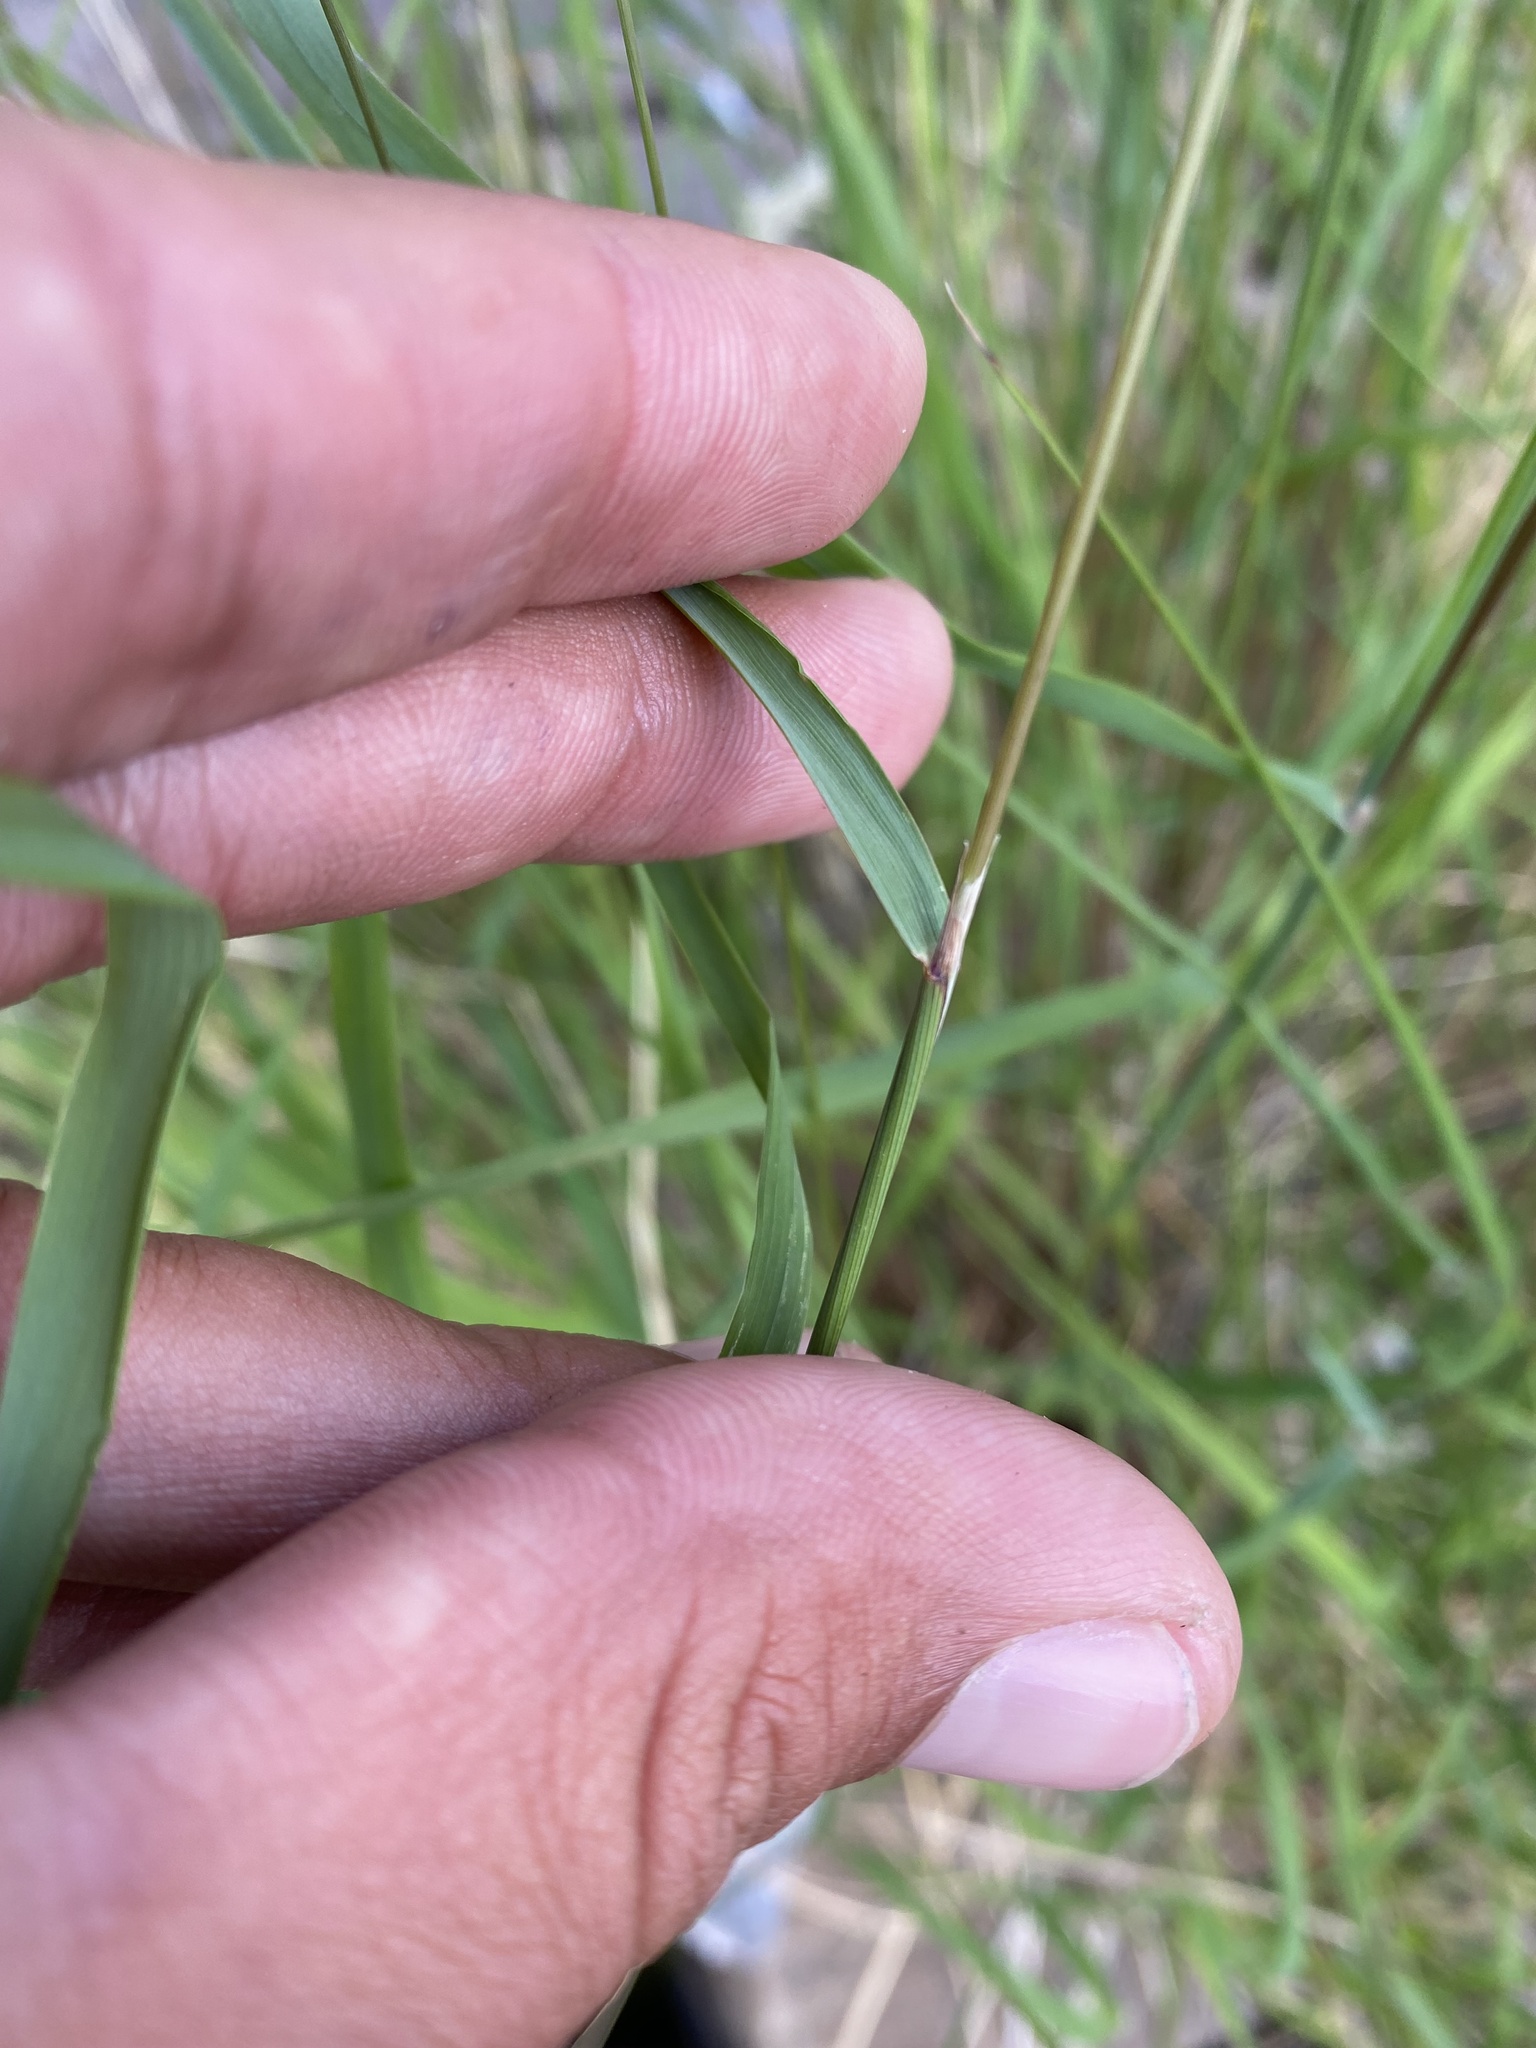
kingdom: Plantae
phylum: Tracheophyta
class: Liliopsida
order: Poales
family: Poaceae
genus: Calamagrostis
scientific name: Calamagrostis purpurea
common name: Scandinavian small-reed
